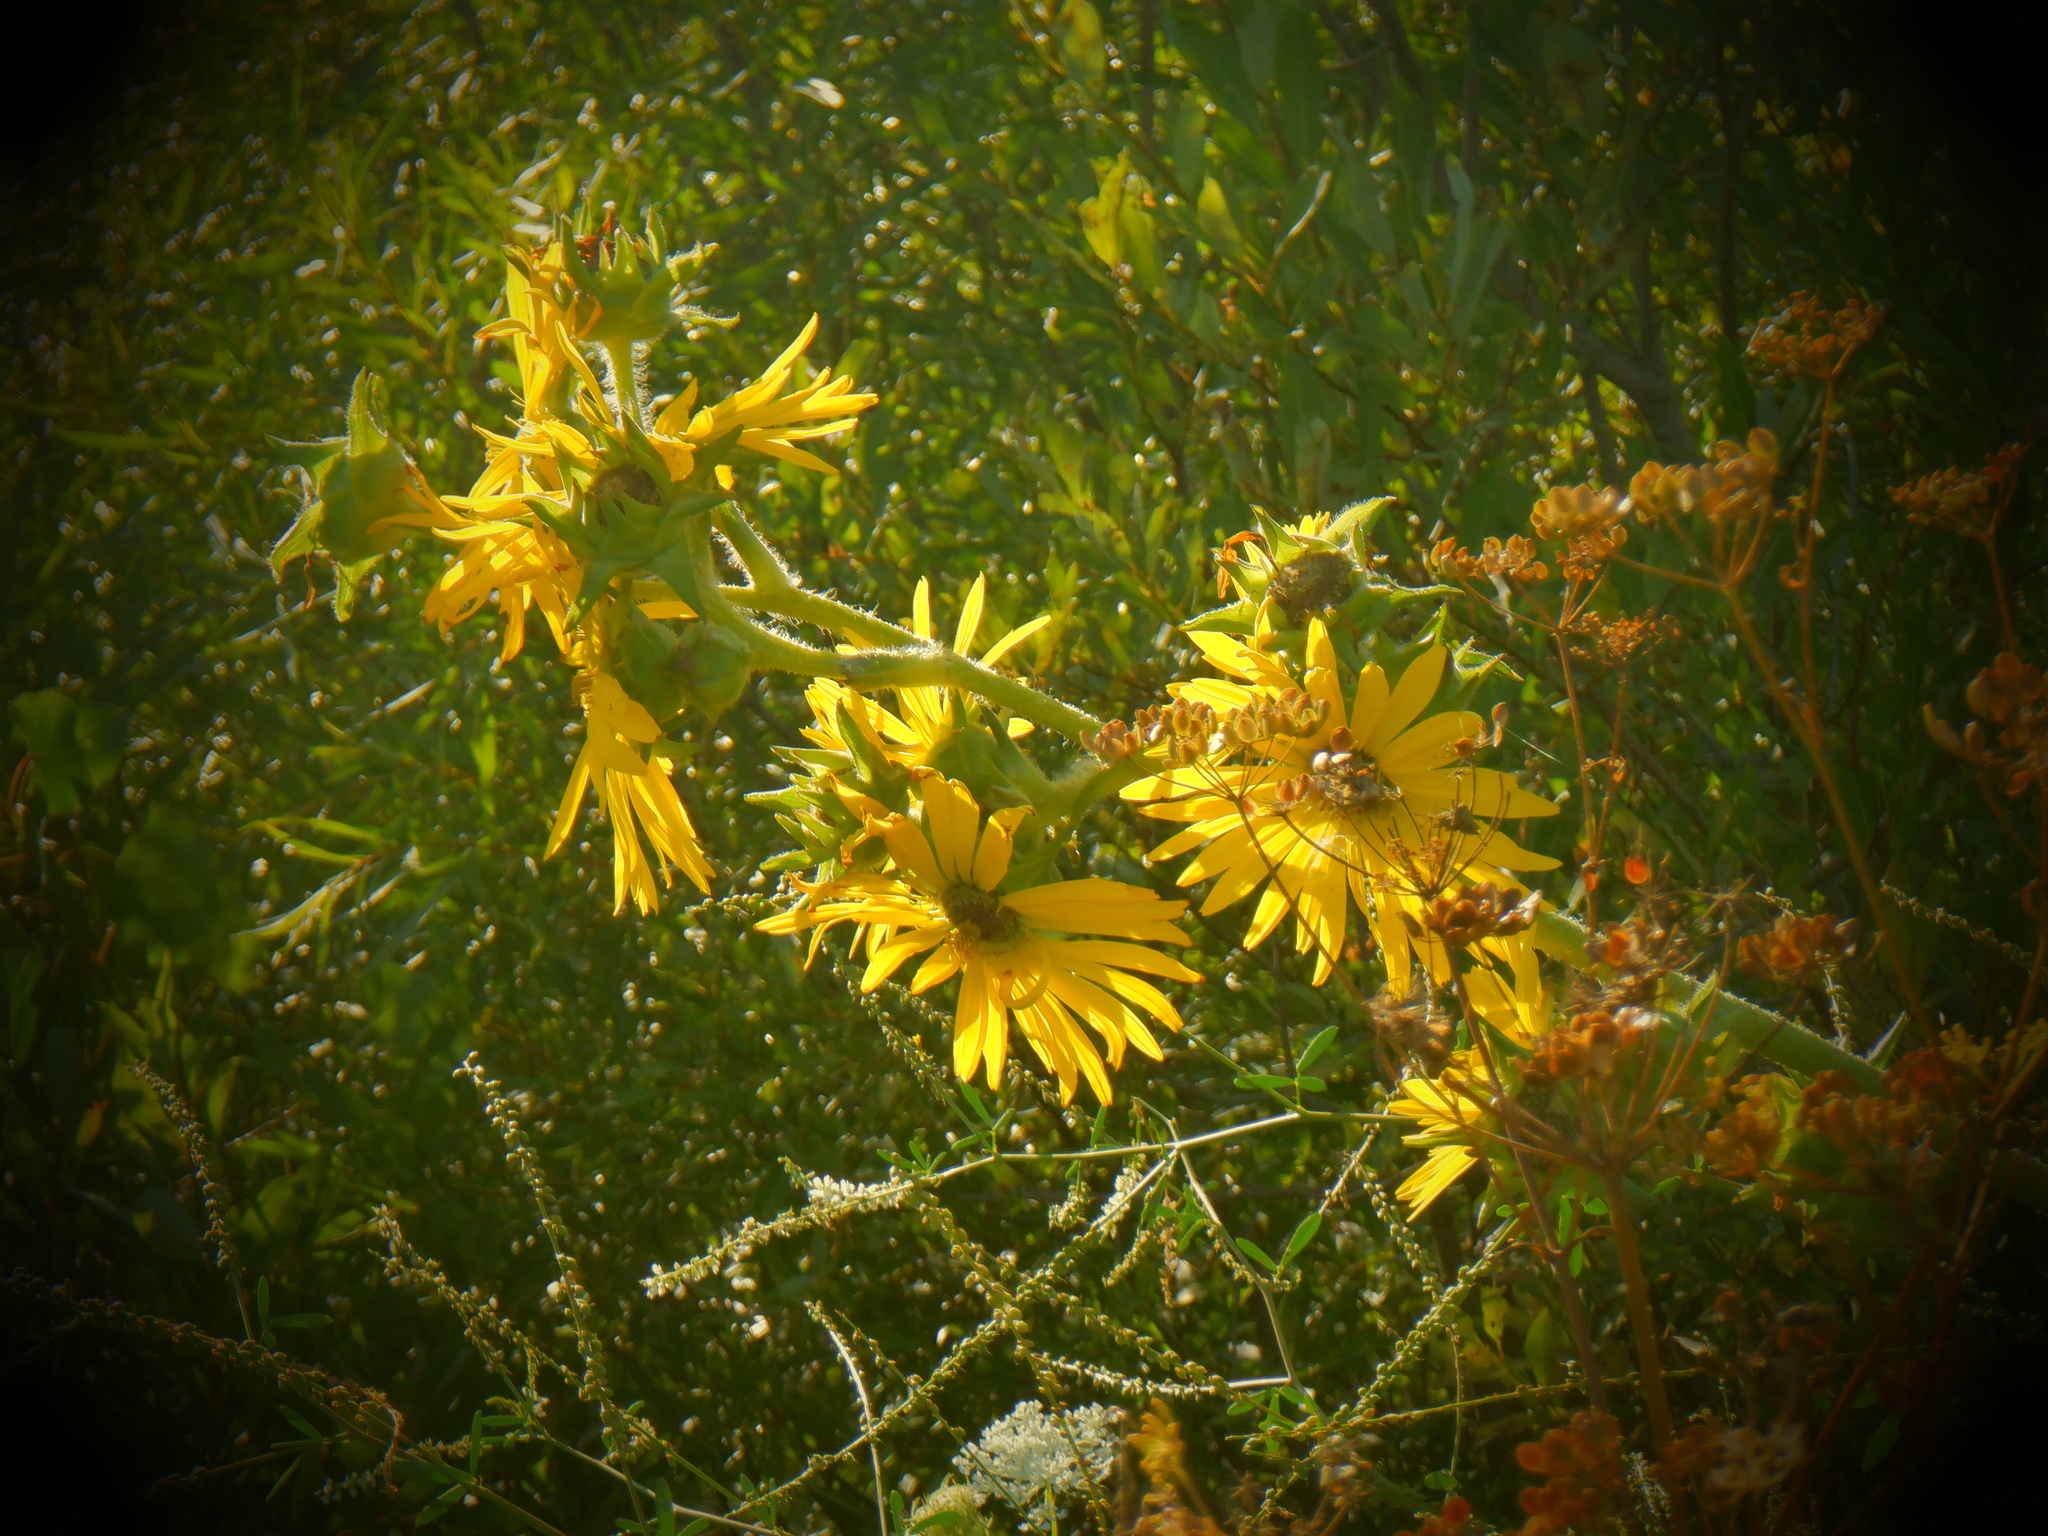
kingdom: Plantae
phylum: Tracheophyta
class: Magnoliopsida
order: Asterales
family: Asteraceae
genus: Silphium
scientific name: Silphium laciniatum
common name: Polarplant
